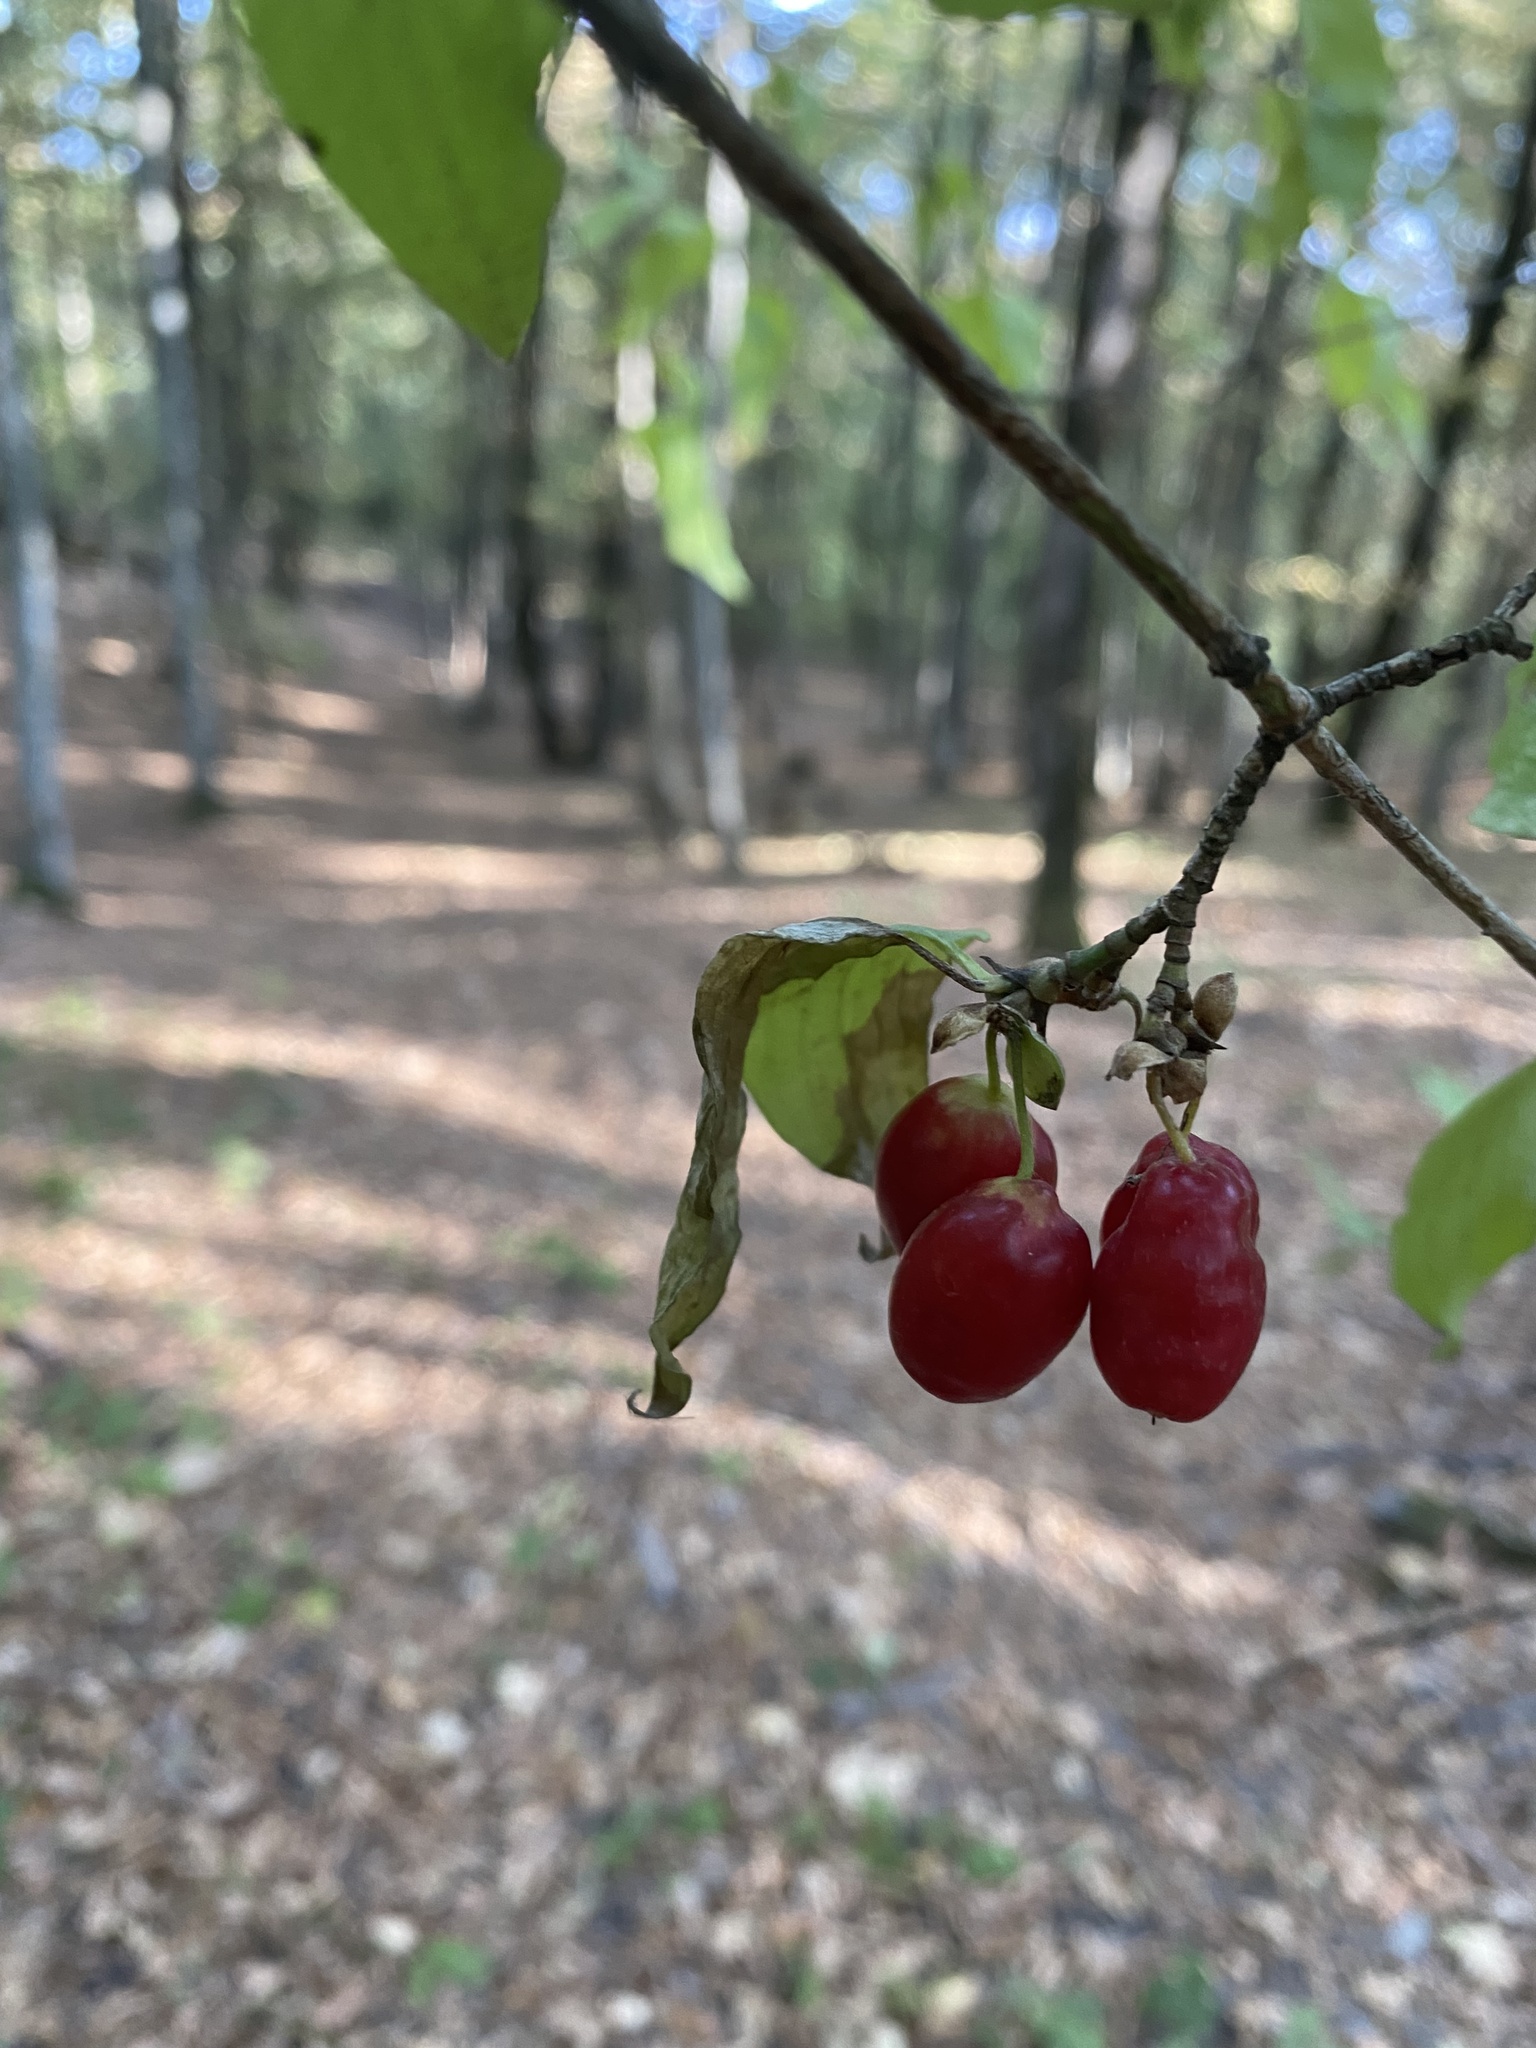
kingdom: Plantae
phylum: Tracheophyta
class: Magnoliopsida
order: Cornales
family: Cornaceae
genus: Cornus
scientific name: Cornus mas
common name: Cornelian-cherry
